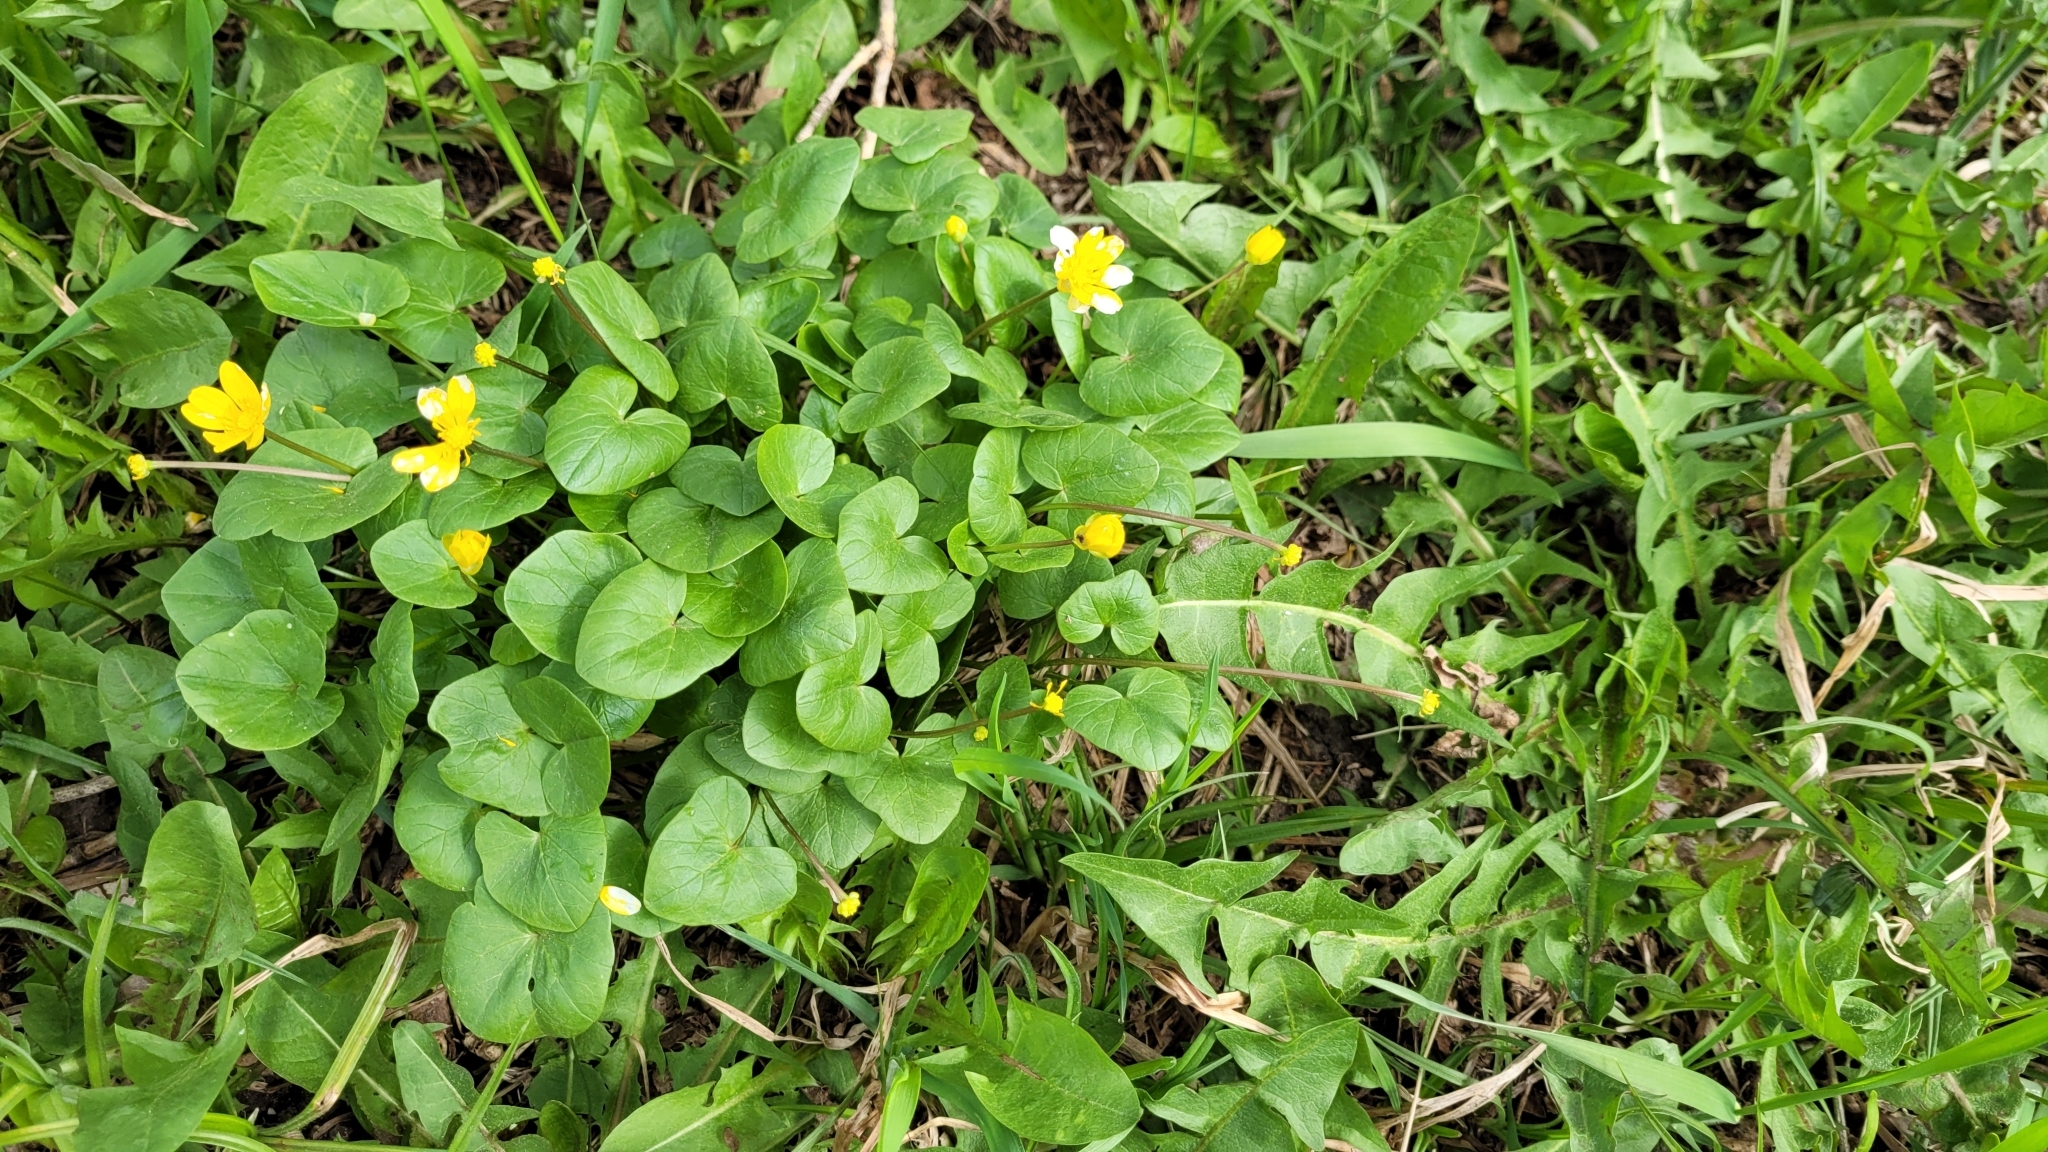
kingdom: Plantae
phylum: Tracheophyta
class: Magnoliopsida
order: Ranunculales
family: Ranunculaceae
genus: Ficaria
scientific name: Ficaria verna
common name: Lesser celandine
